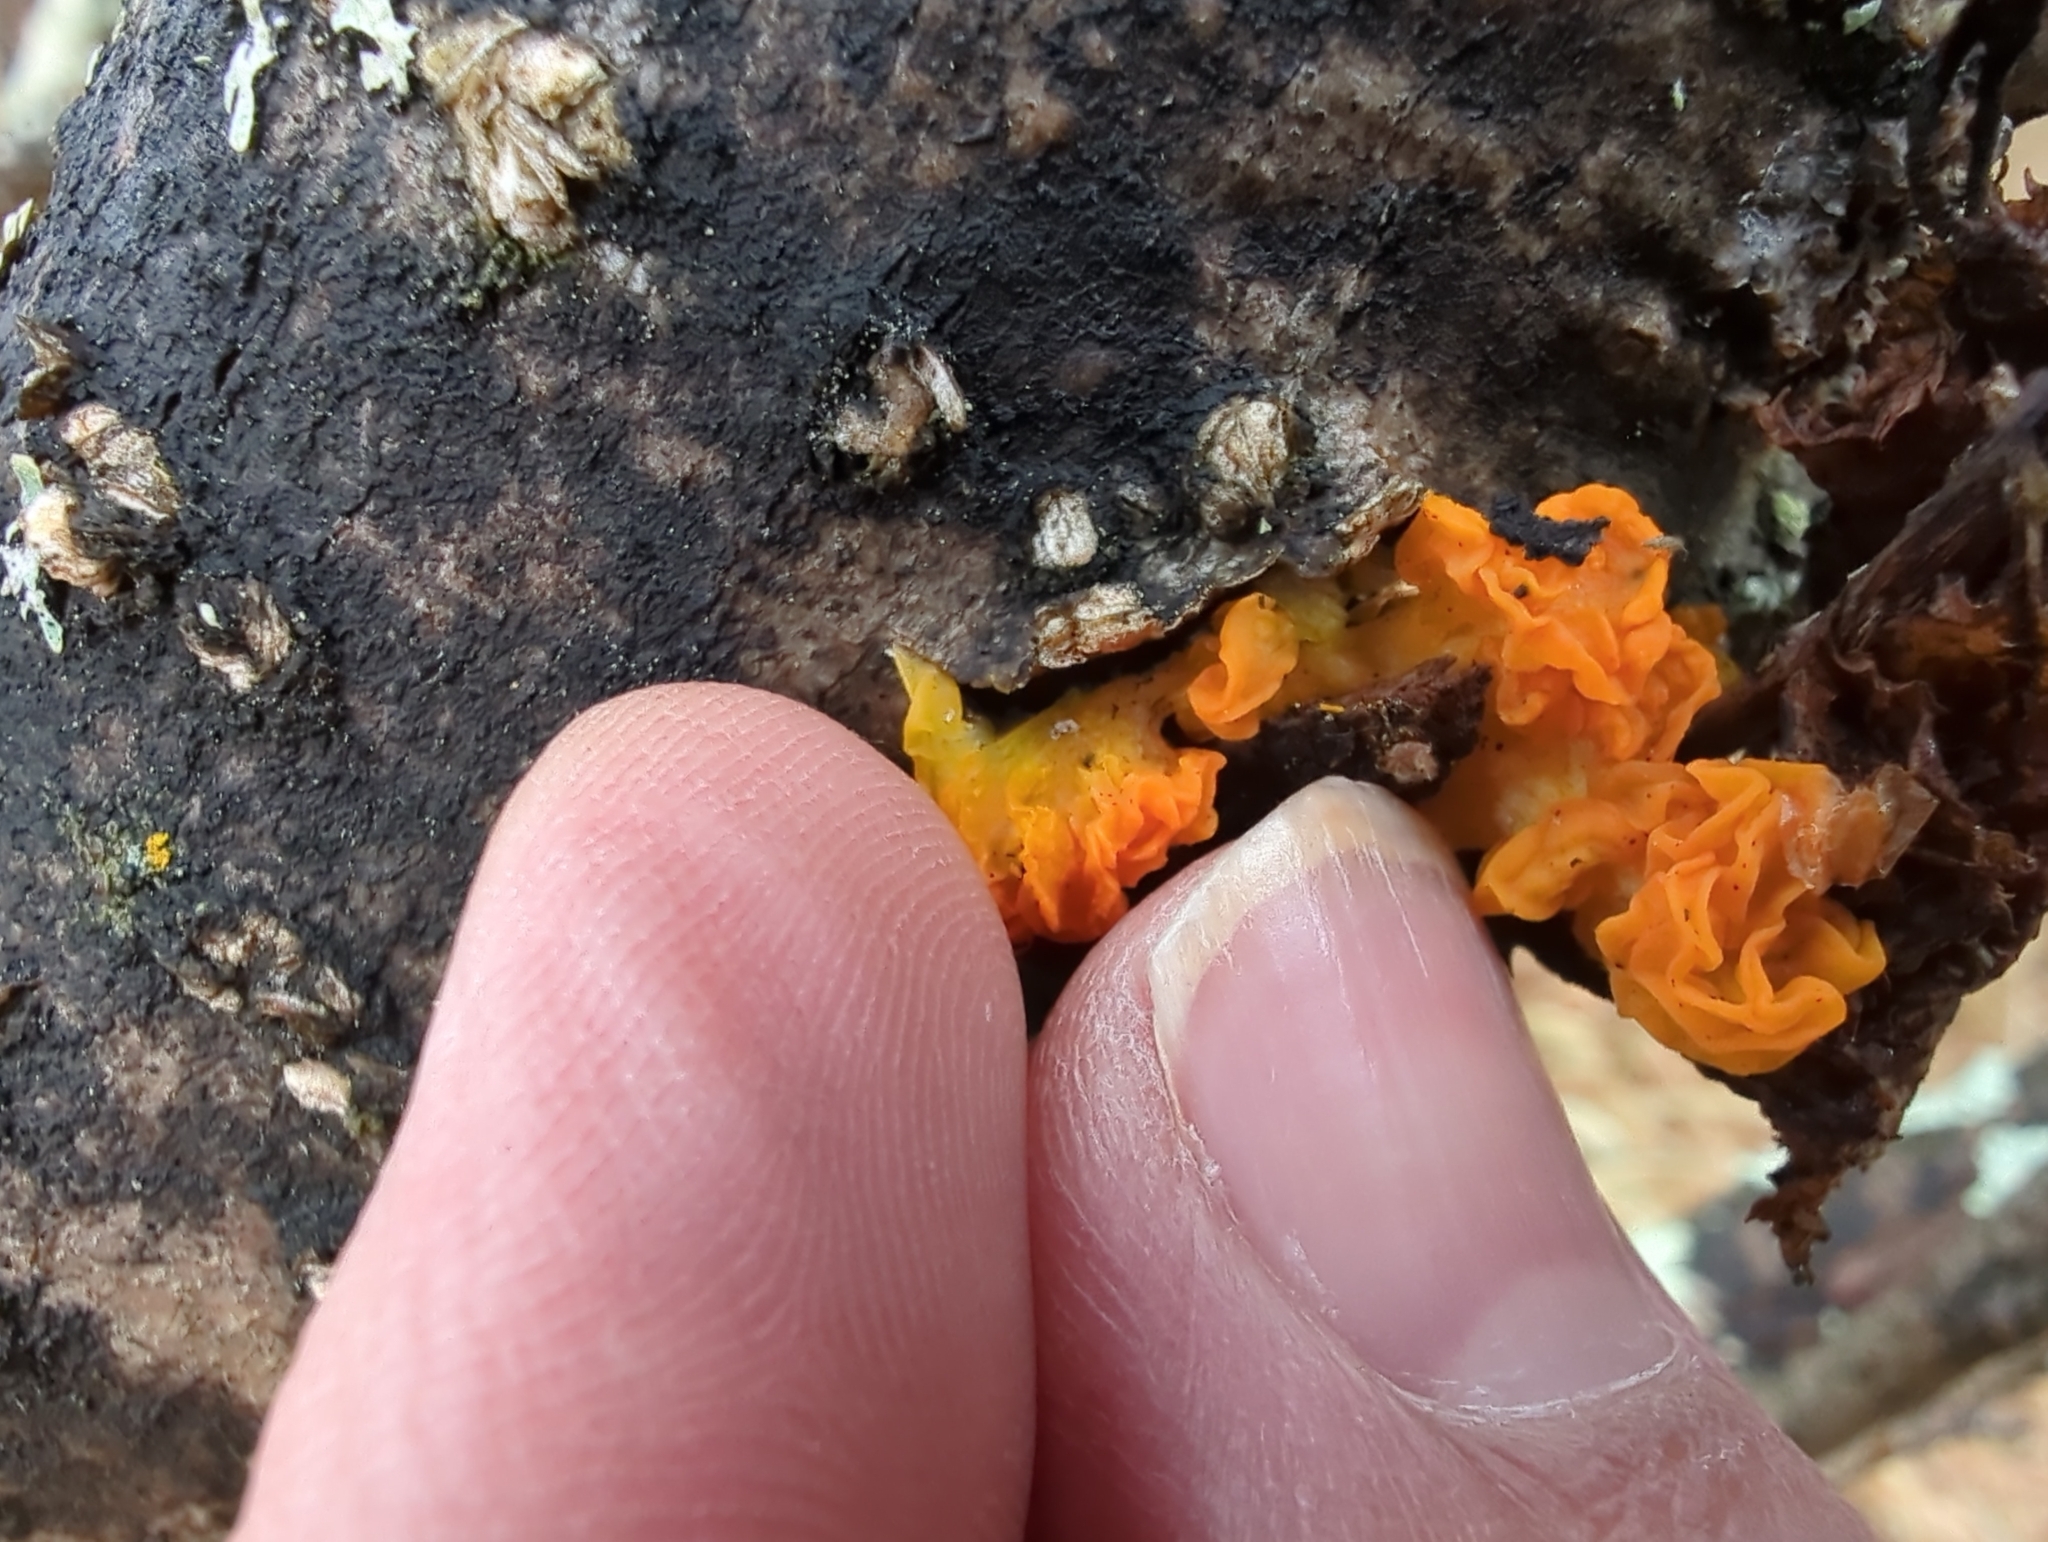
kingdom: Fungi
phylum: Basidiomycota
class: Tremellomycetes
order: Tremellales
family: Tremellaceae
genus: Tremella
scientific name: Tremella mesenterica
